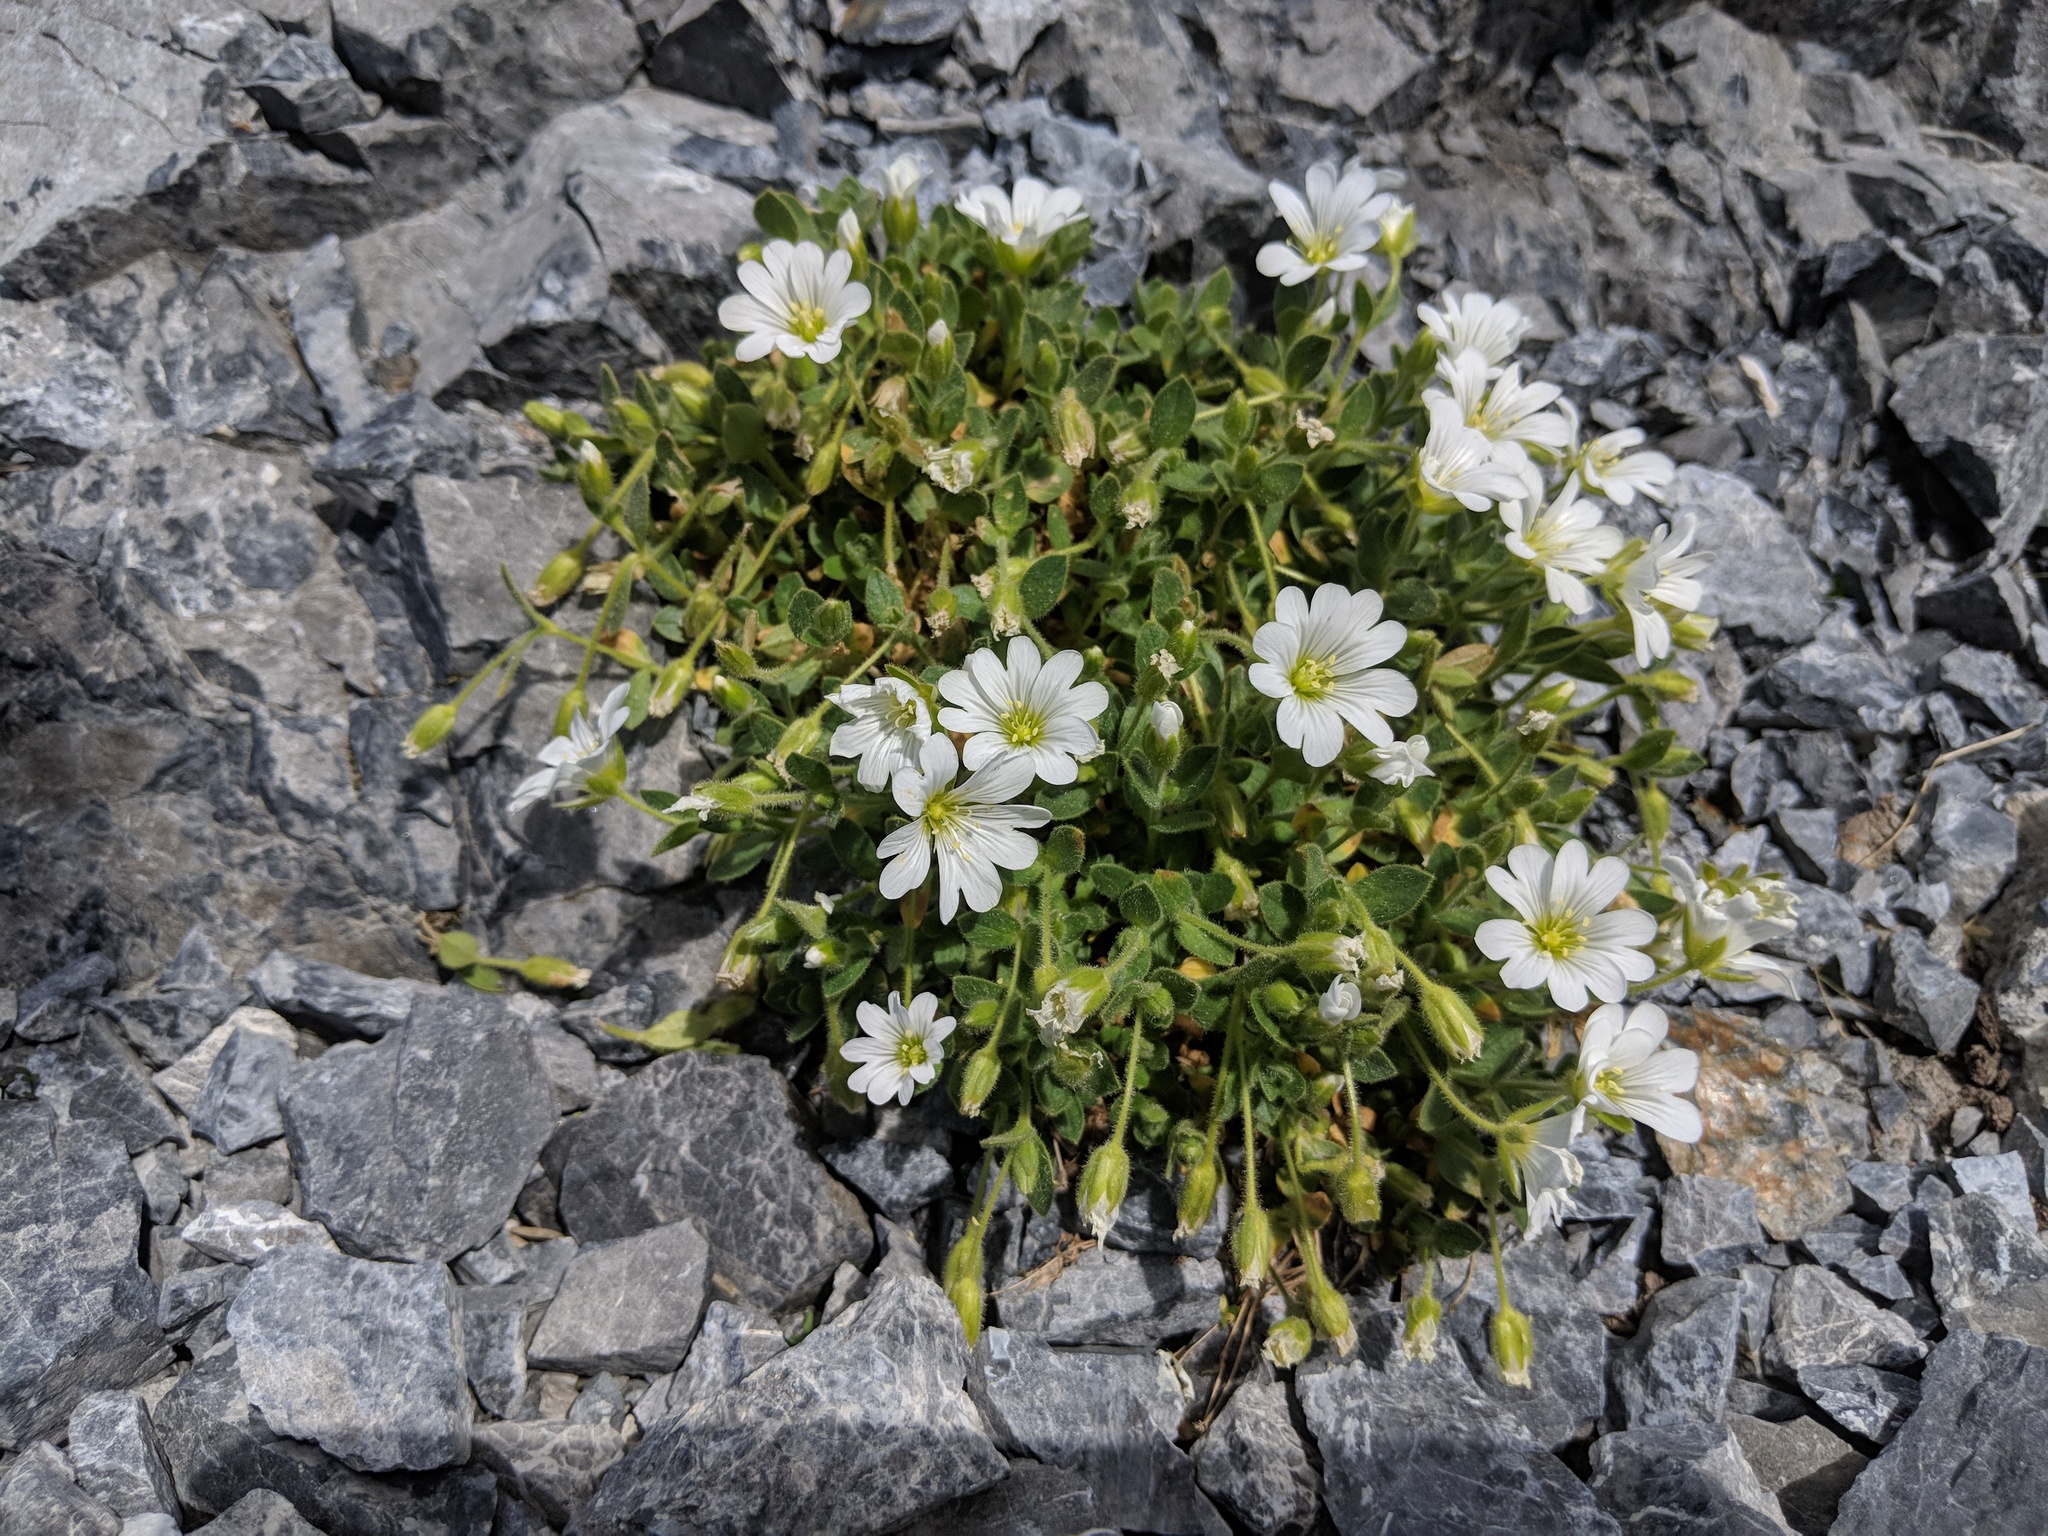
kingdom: Plantae
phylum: Tracheophyta
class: Magnoliopsida
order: Caryophyllales
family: Caryophyllaceae
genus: Cerastium
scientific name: Cerastium uniflorum
